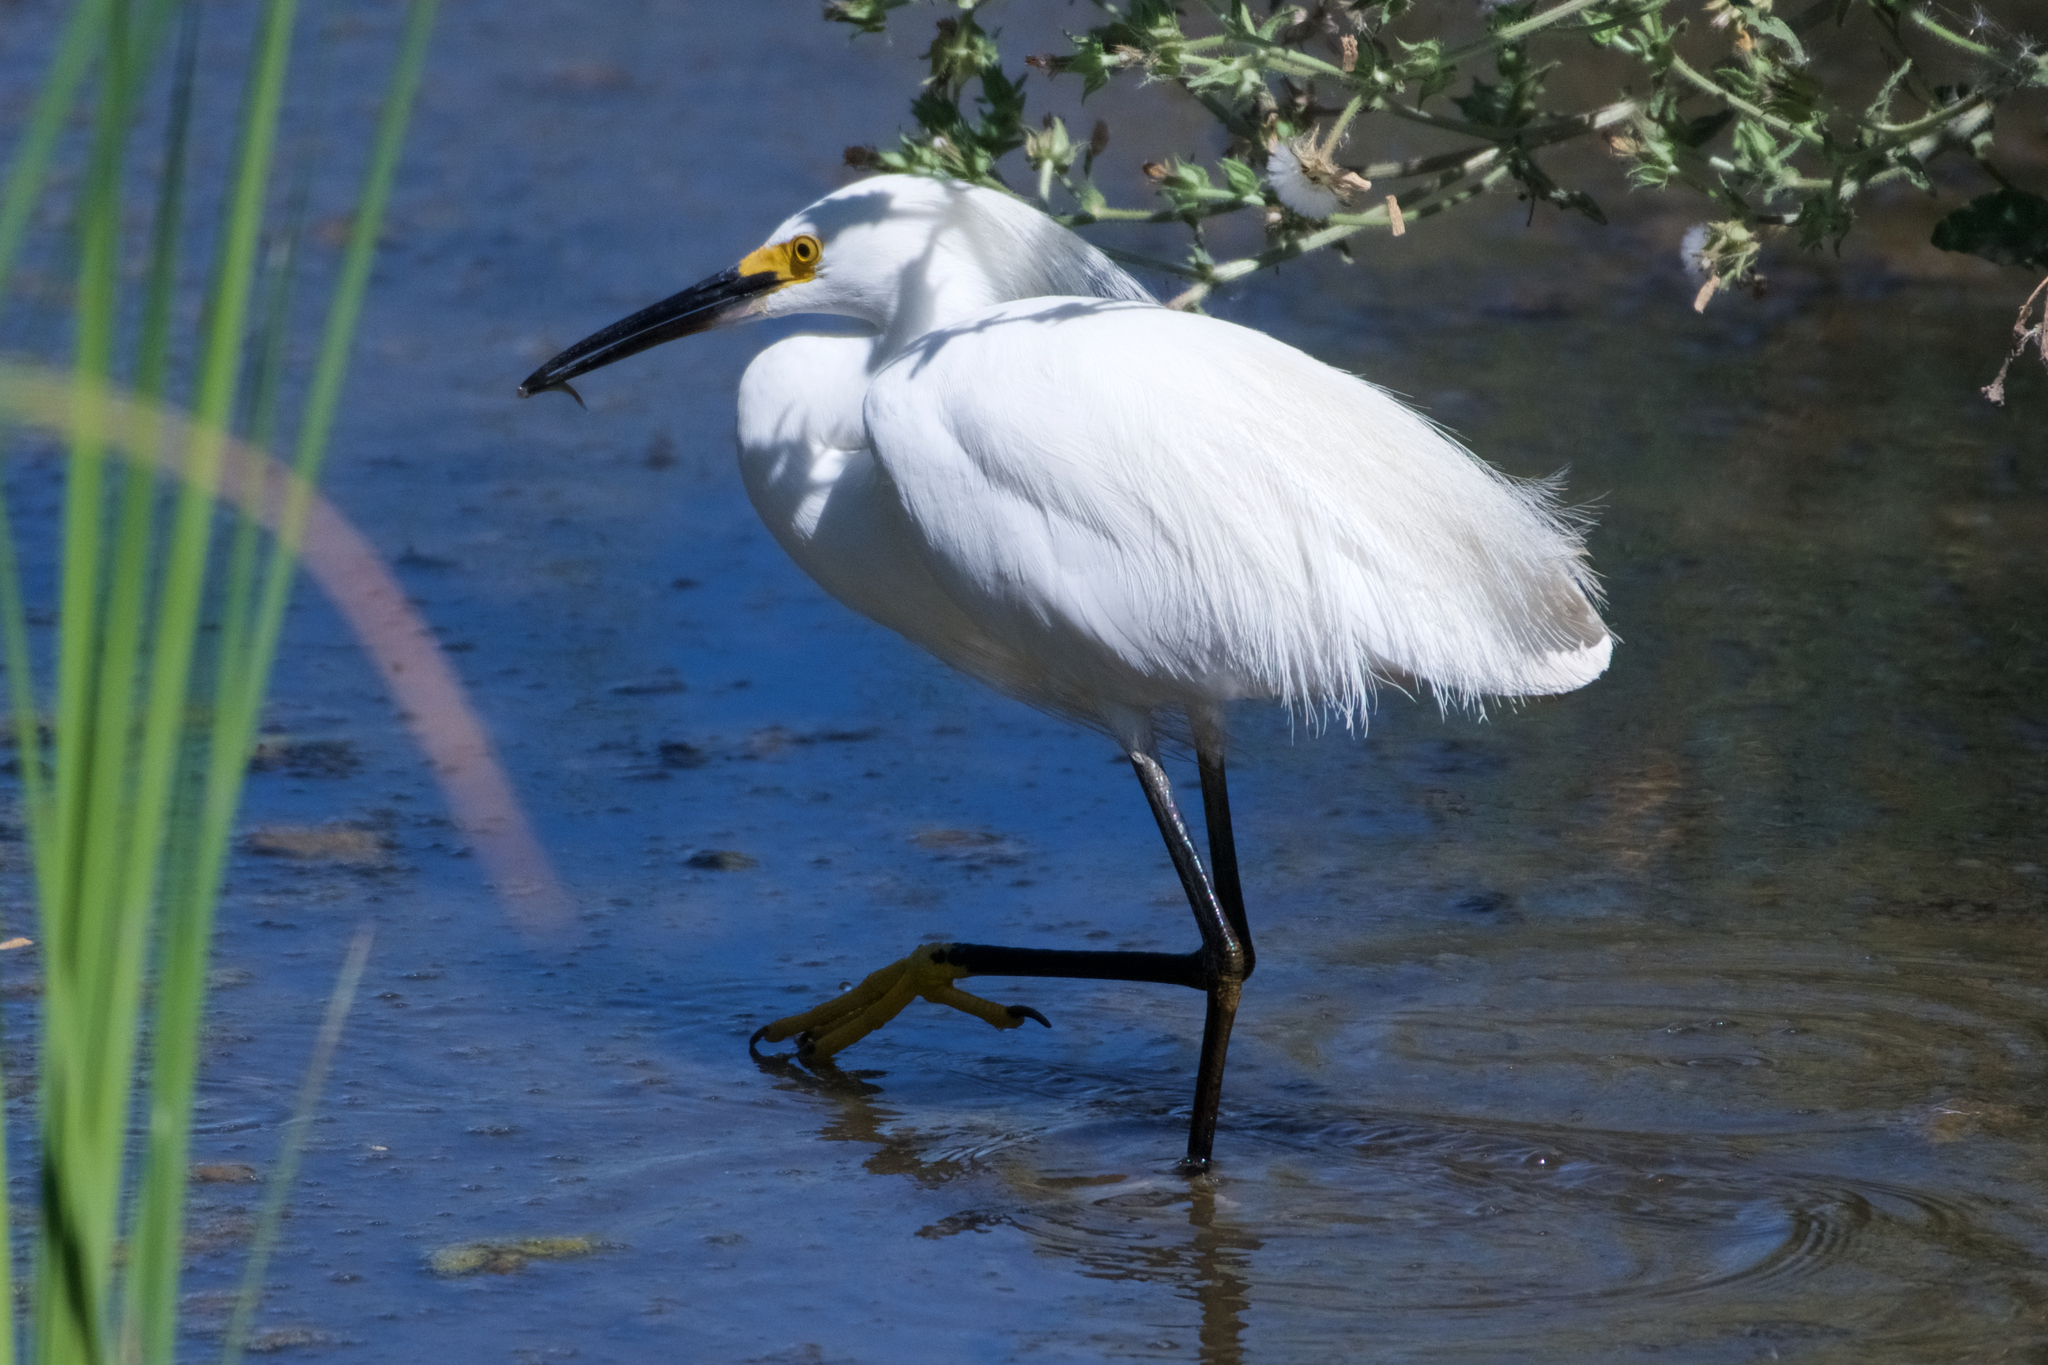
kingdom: Animalia
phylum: Chordata
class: Aves
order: Pelecaniformes
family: Ardeidae
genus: Egretta
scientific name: Egretta thula
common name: Snowy egret
